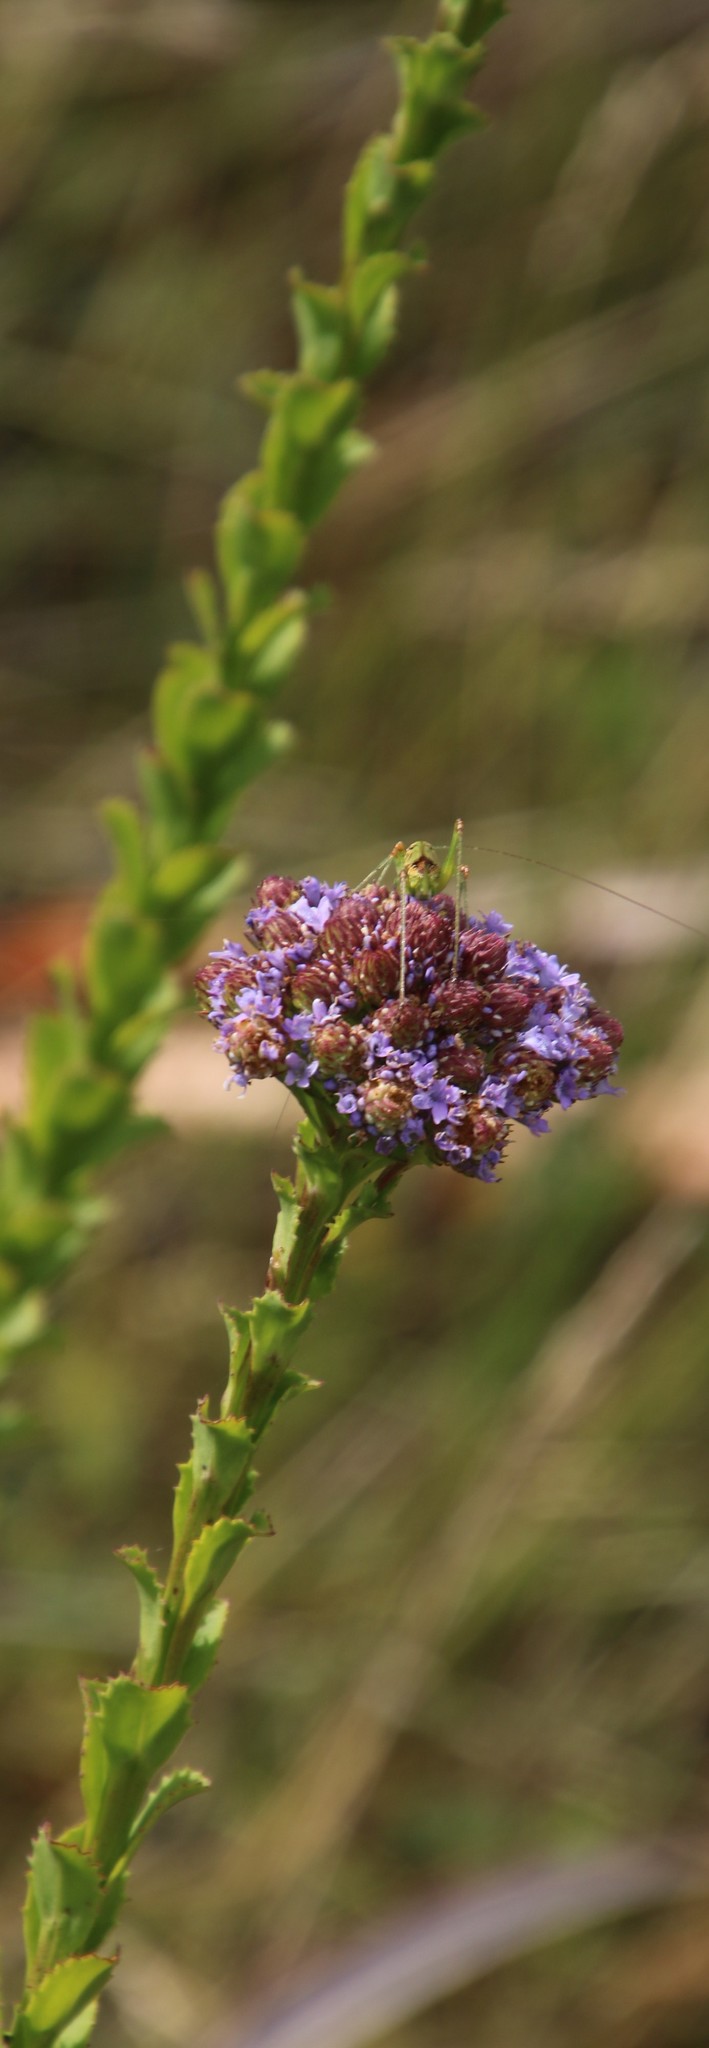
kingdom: Plantae
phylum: Tracheophyta
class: Magnoliopsida
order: Lamiales
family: Scrophulariaceae
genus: Pseudoselago
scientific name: Pseudoselago serrata
